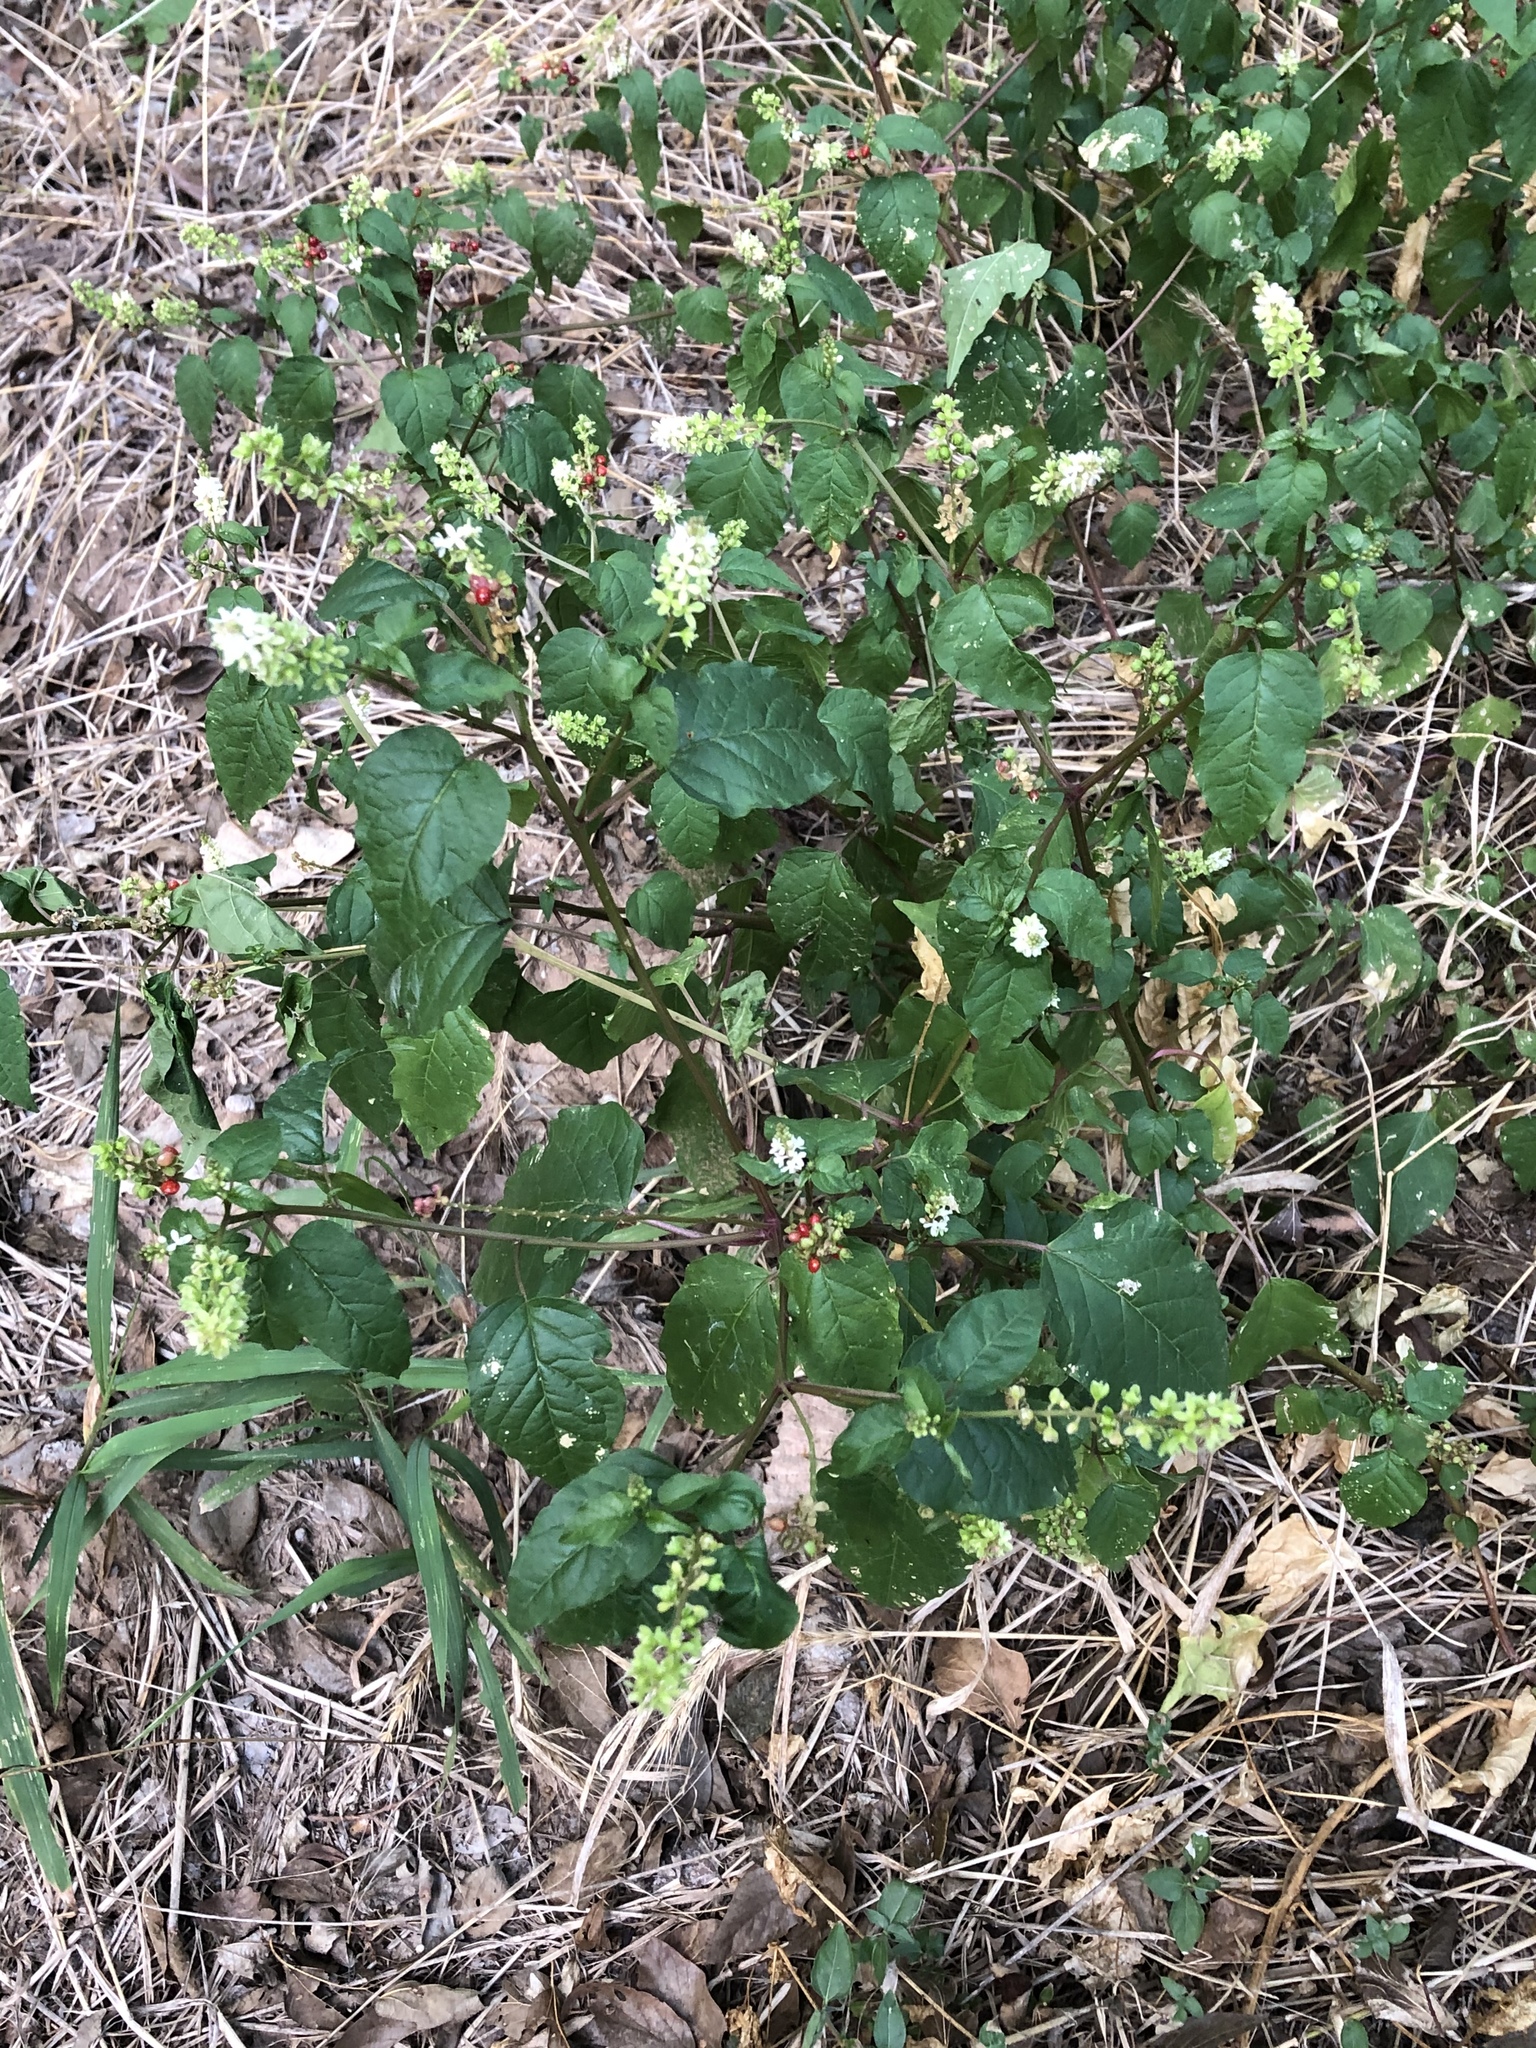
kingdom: Plantae
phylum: Tracheophyta
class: Magnoliopsida
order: Caryophyllales
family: Phytolaccaceae
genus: Rivina
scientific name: Rivina humilis
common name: Rougeplant
